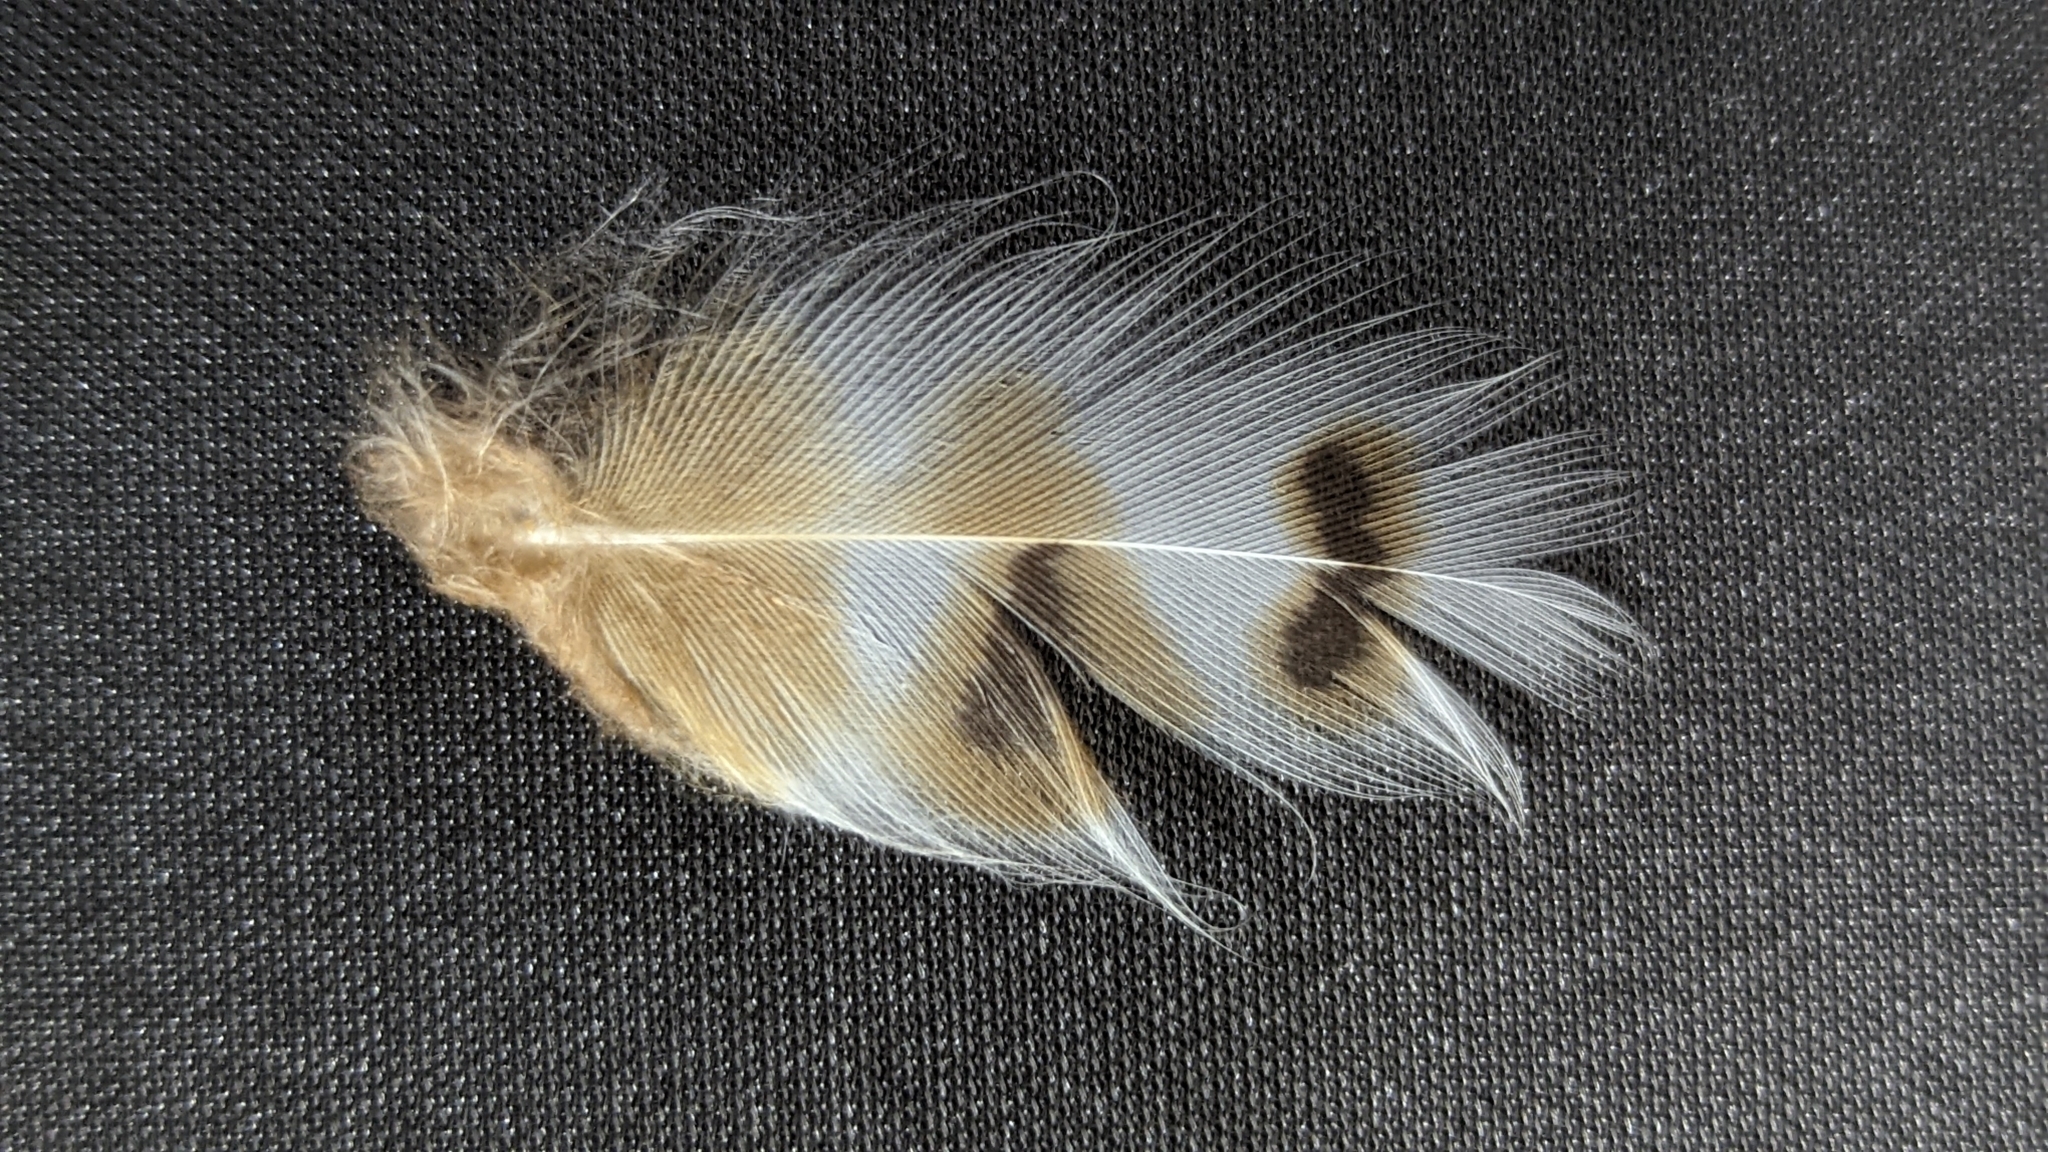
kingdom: Animalia
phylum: Chordata
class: Aves
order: Strigiformes
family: Strigidae
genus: Bubo
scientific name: Bubo virginianus
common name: Great horned owl
